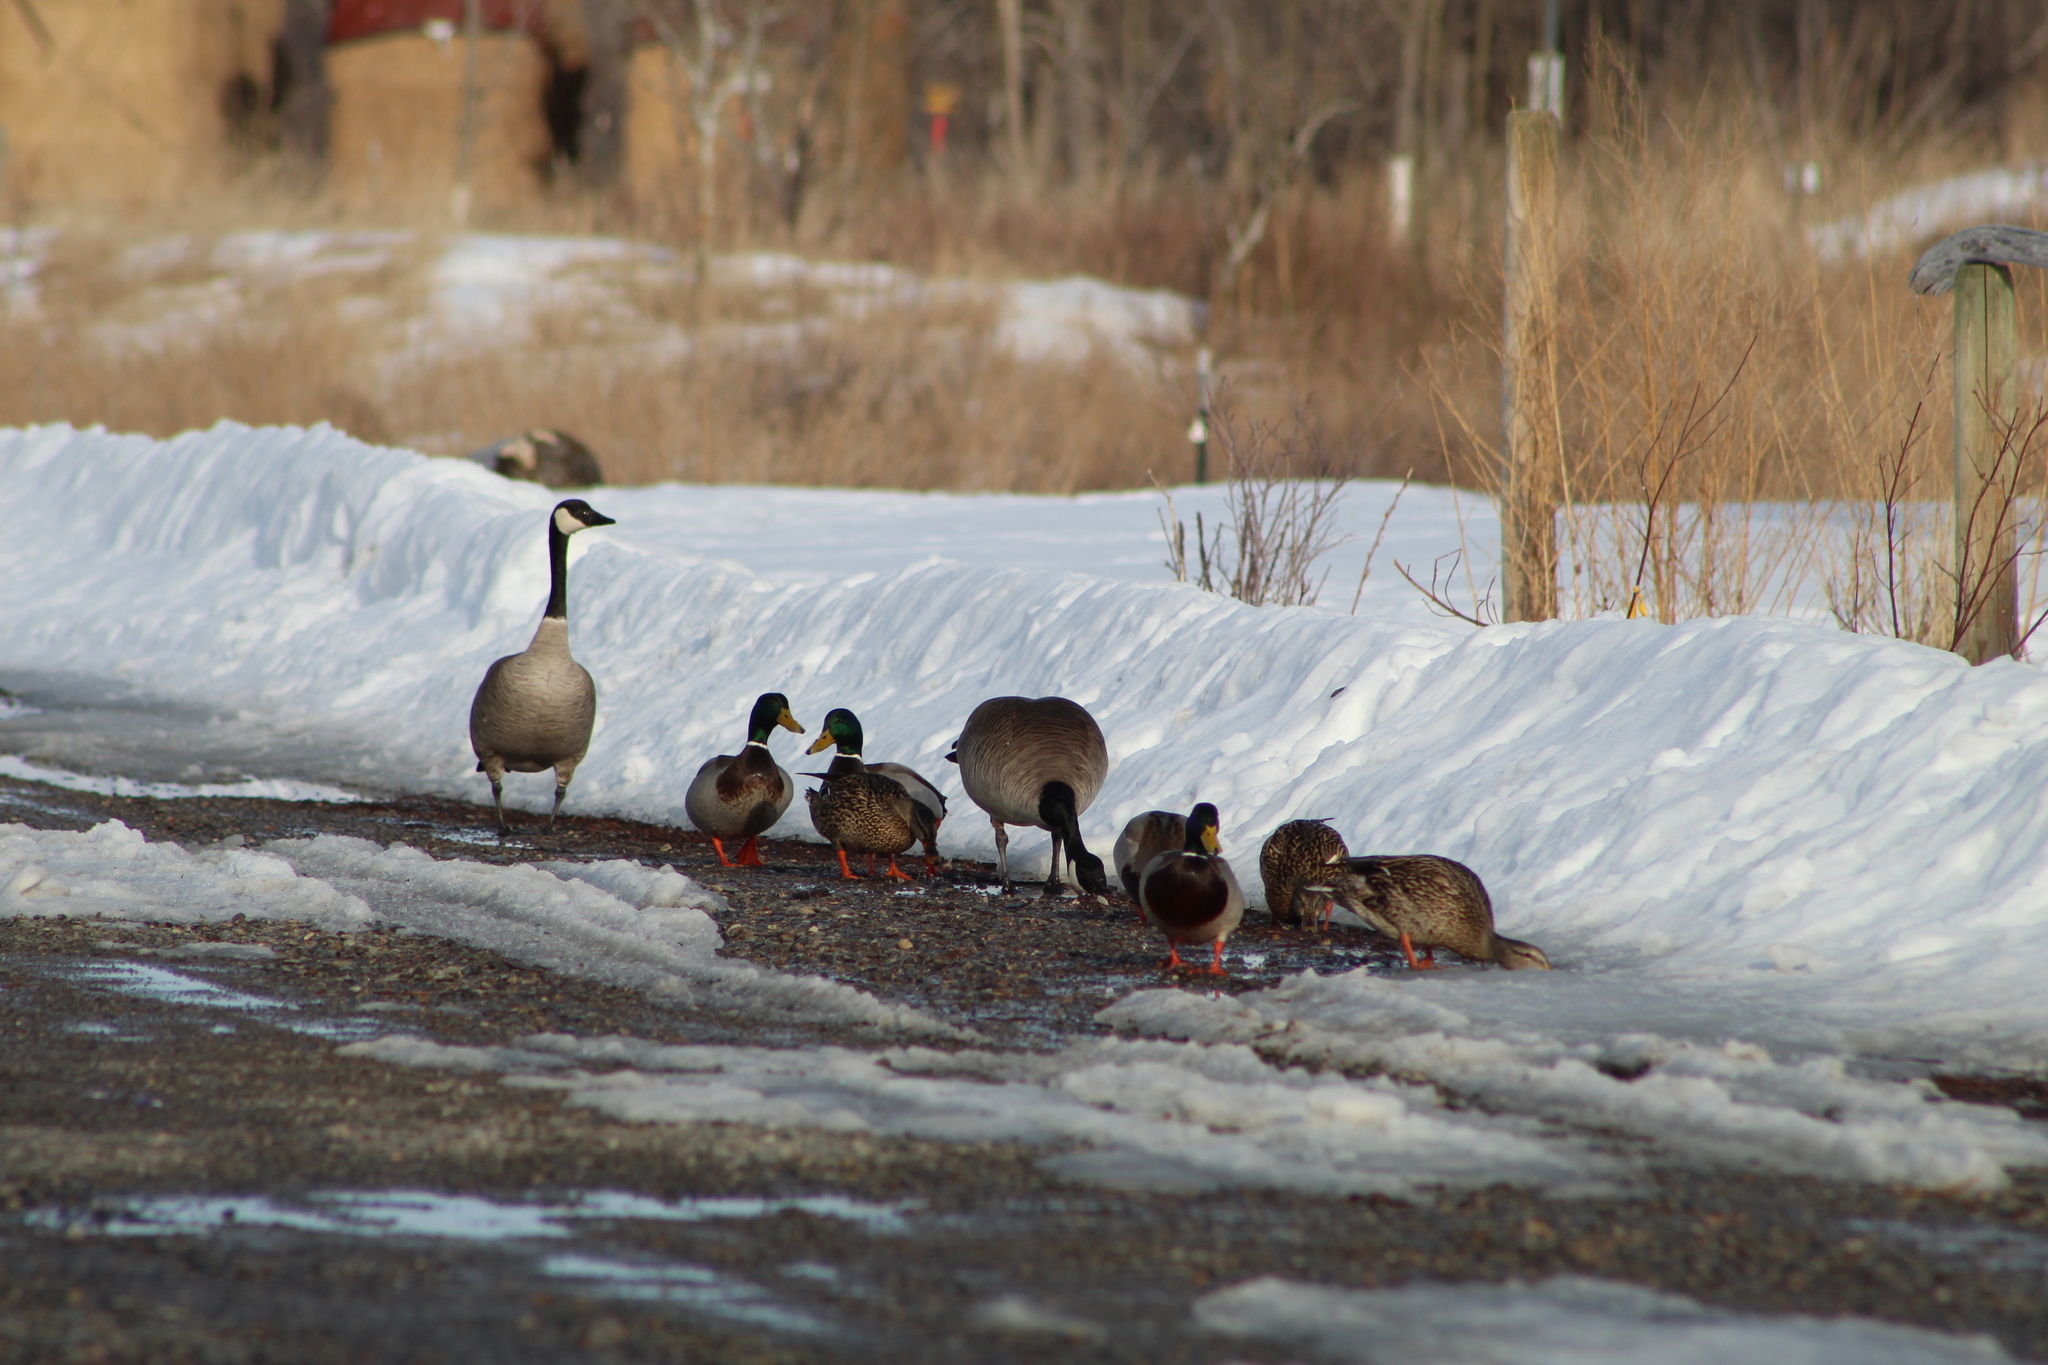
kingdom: Animalia
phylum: Chordata
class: Aves
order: Anseriformes
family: Anatidae
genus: Anas
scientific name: Anas platyrhynchos
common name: Mallard
